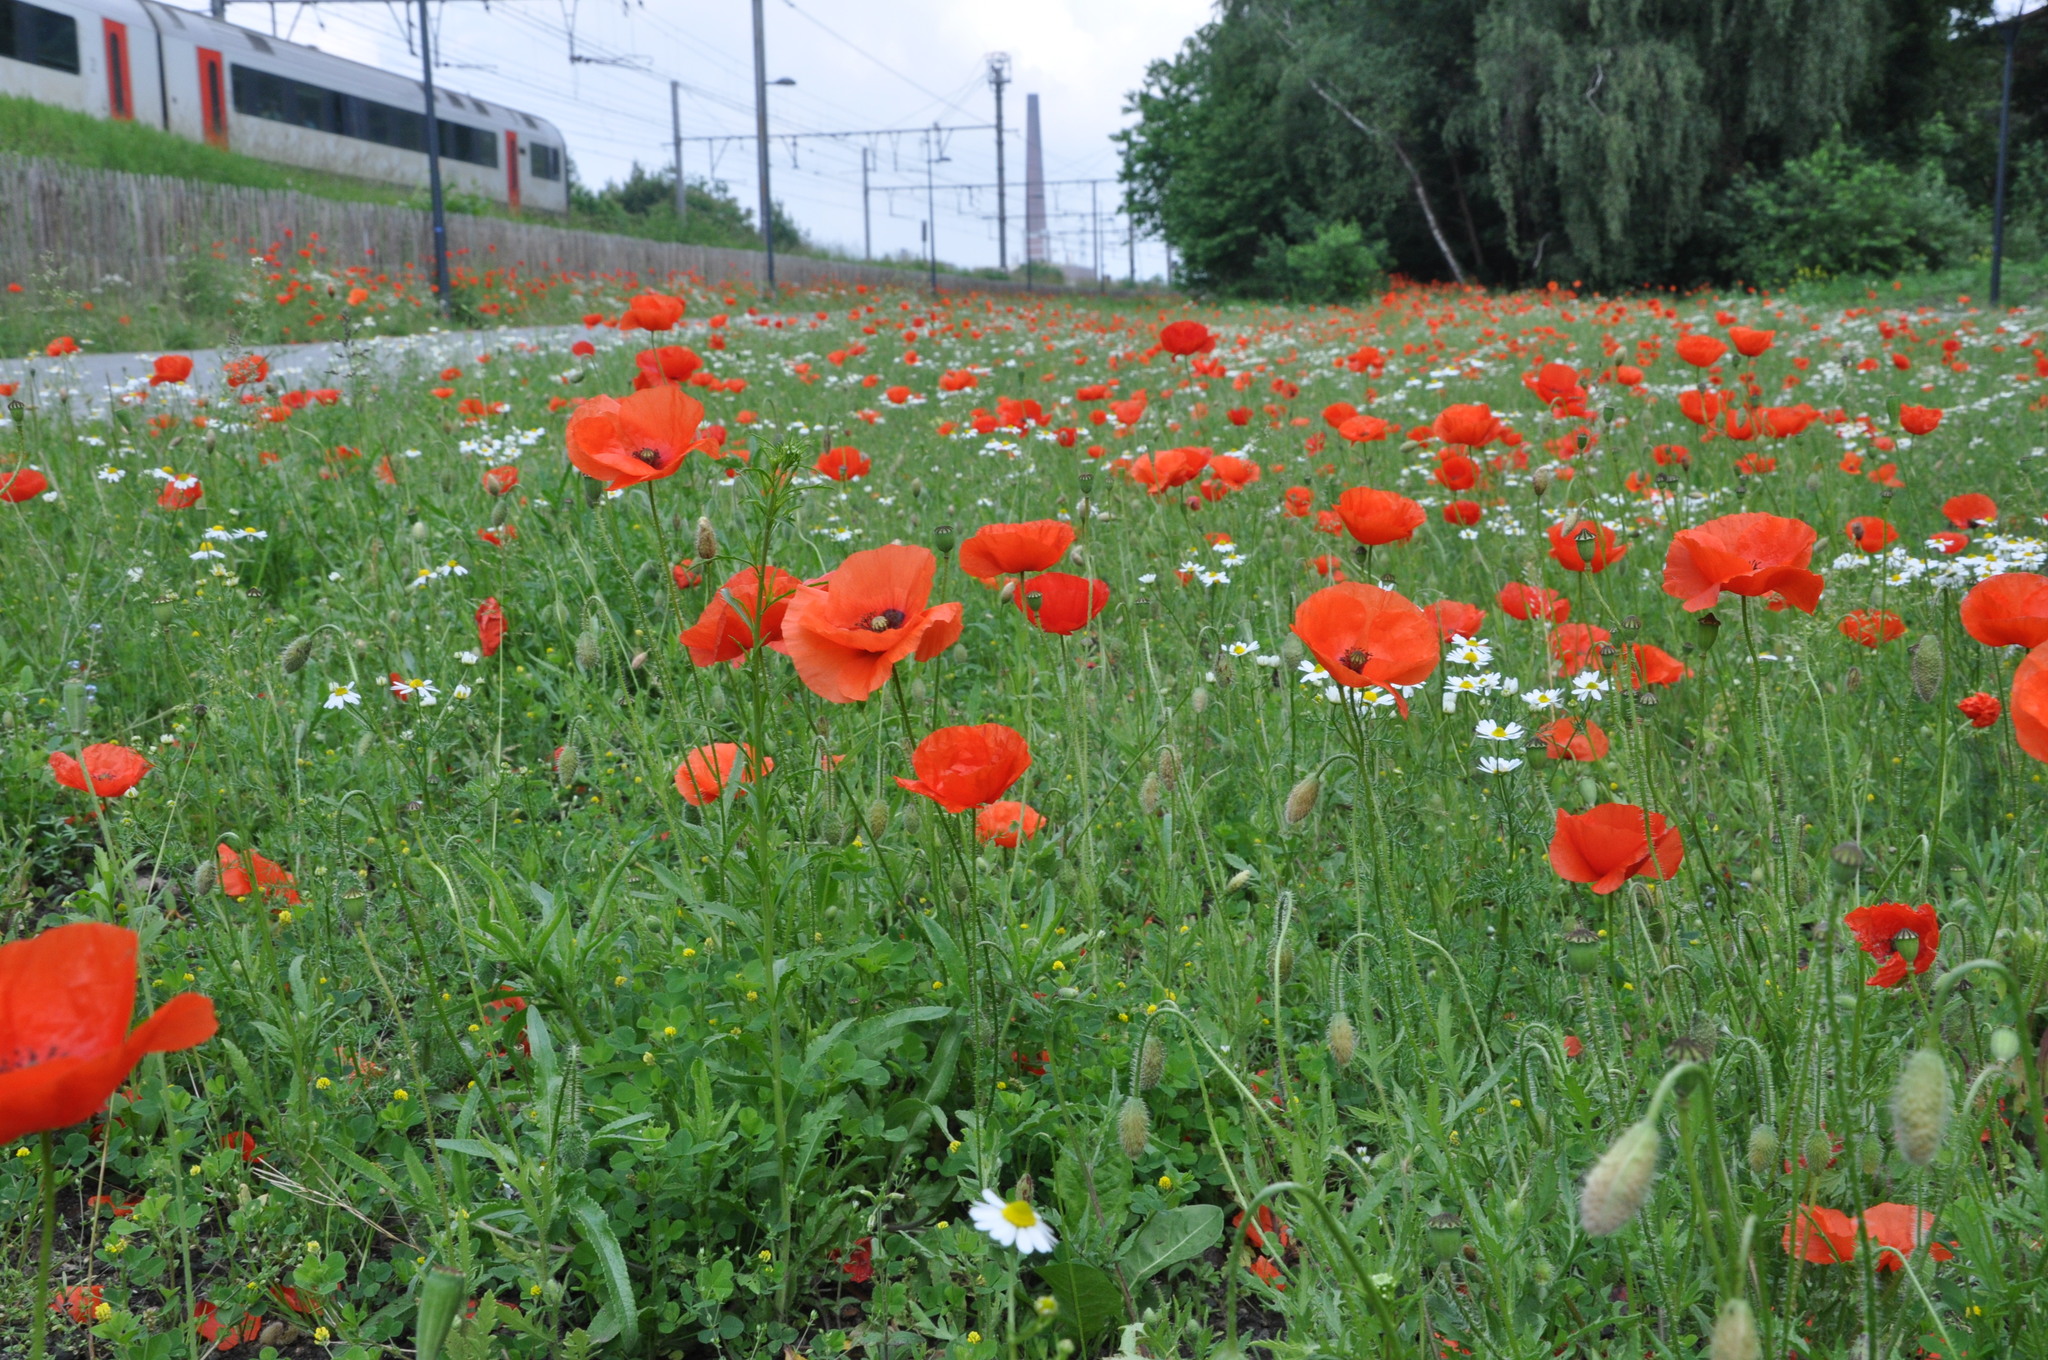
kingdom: Plantae
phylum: Tracheophyta
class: Magnoliopsida
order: Ranunculales
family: Papaveraceae
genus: Papaver
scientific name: Papaver rhoeas
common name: Corn poppy
